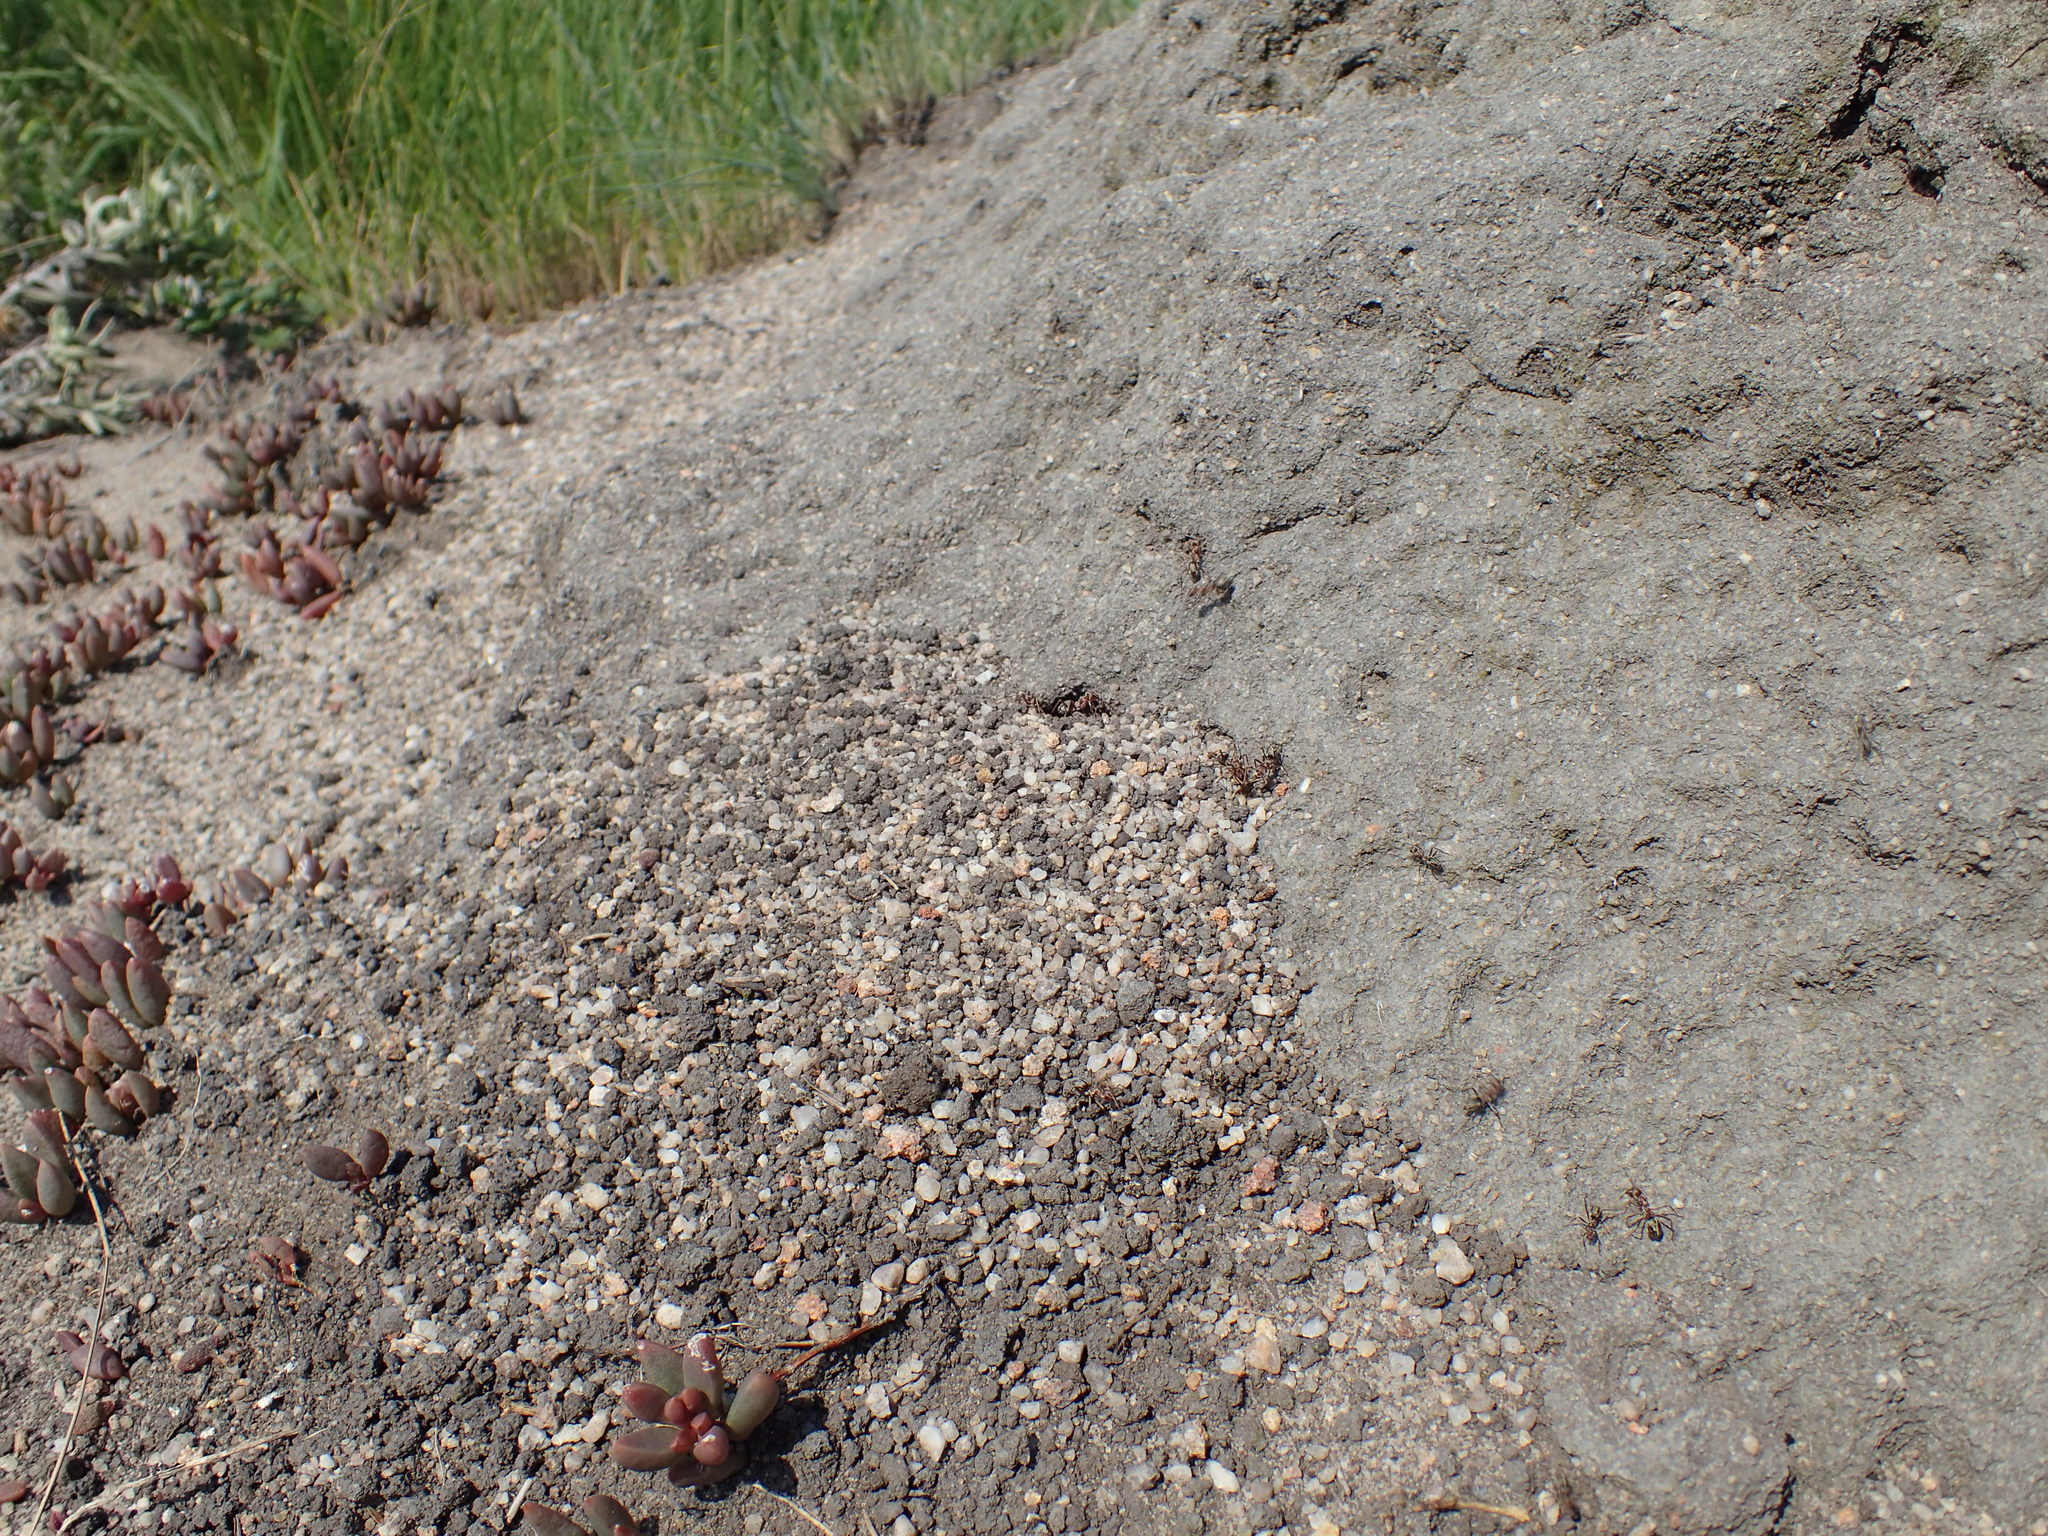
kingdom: Animalia
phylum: Arthropoda
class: Insecta
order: Hymenoptera
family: Formicidae
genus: Anoplolepis
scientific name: Anoplolepis custodiens
